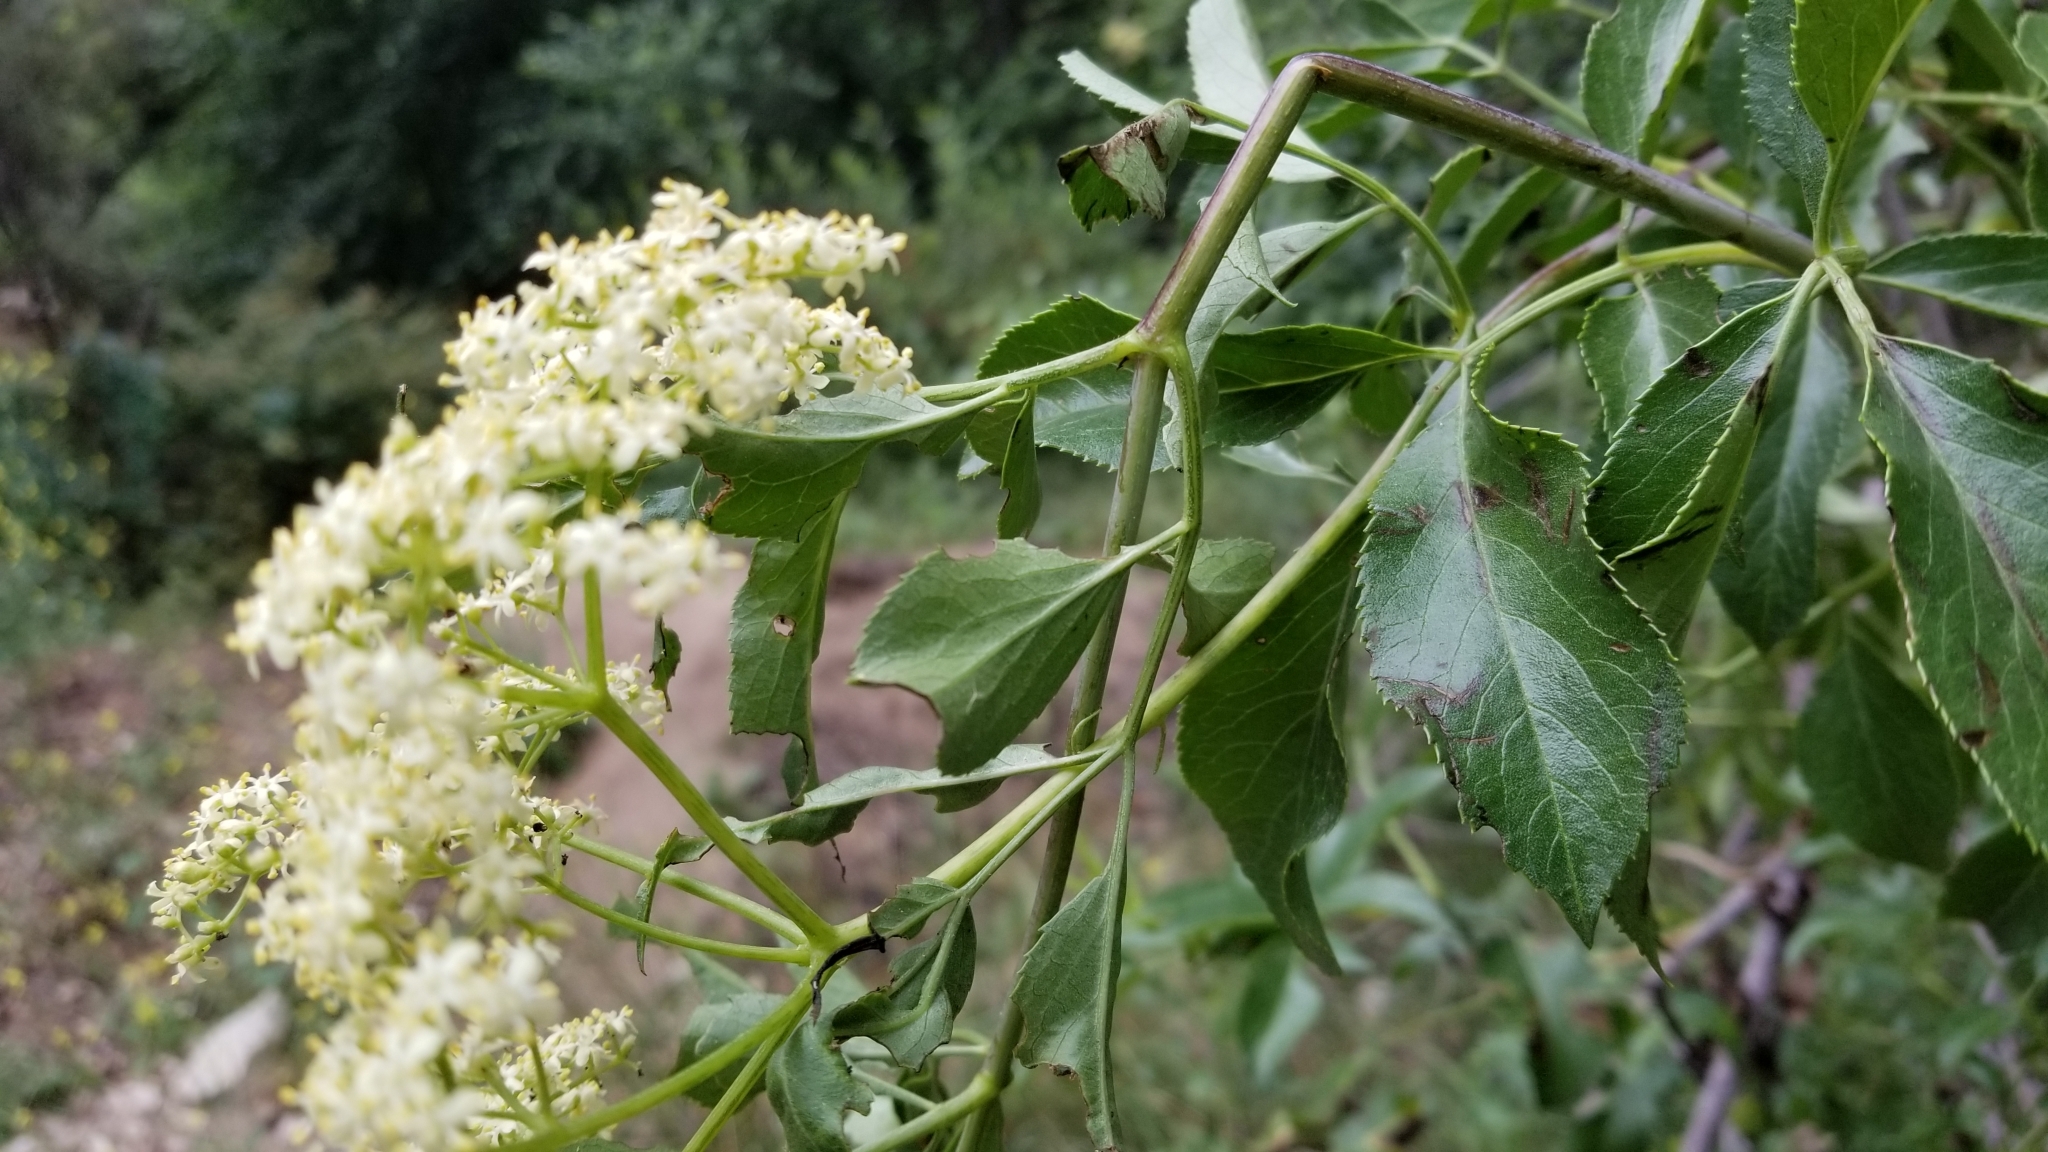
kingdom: Plantae
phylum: Tracheophyta
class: Magnoliopsida
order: Dipsacales
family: Viburnaceae
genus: Sambucus
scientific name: Sambucus cerulea
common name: Blue elder
